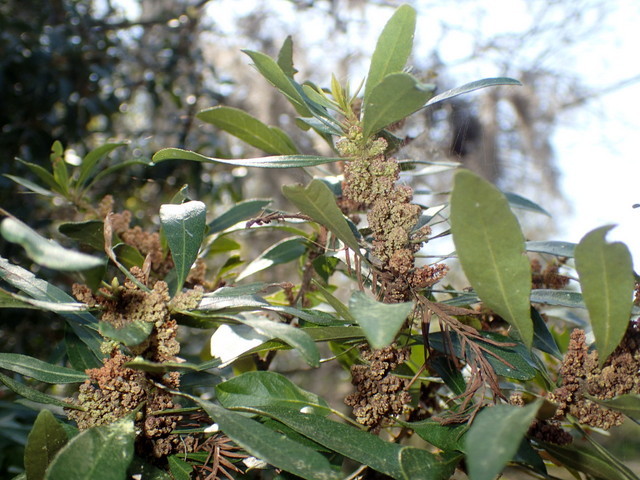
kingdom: Plantae
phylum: Tracheophyta
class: Magnoliopsida
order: Fagales
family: Myricaceae
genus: Morella
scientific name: Morella cerifera
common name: Wax myrtle
